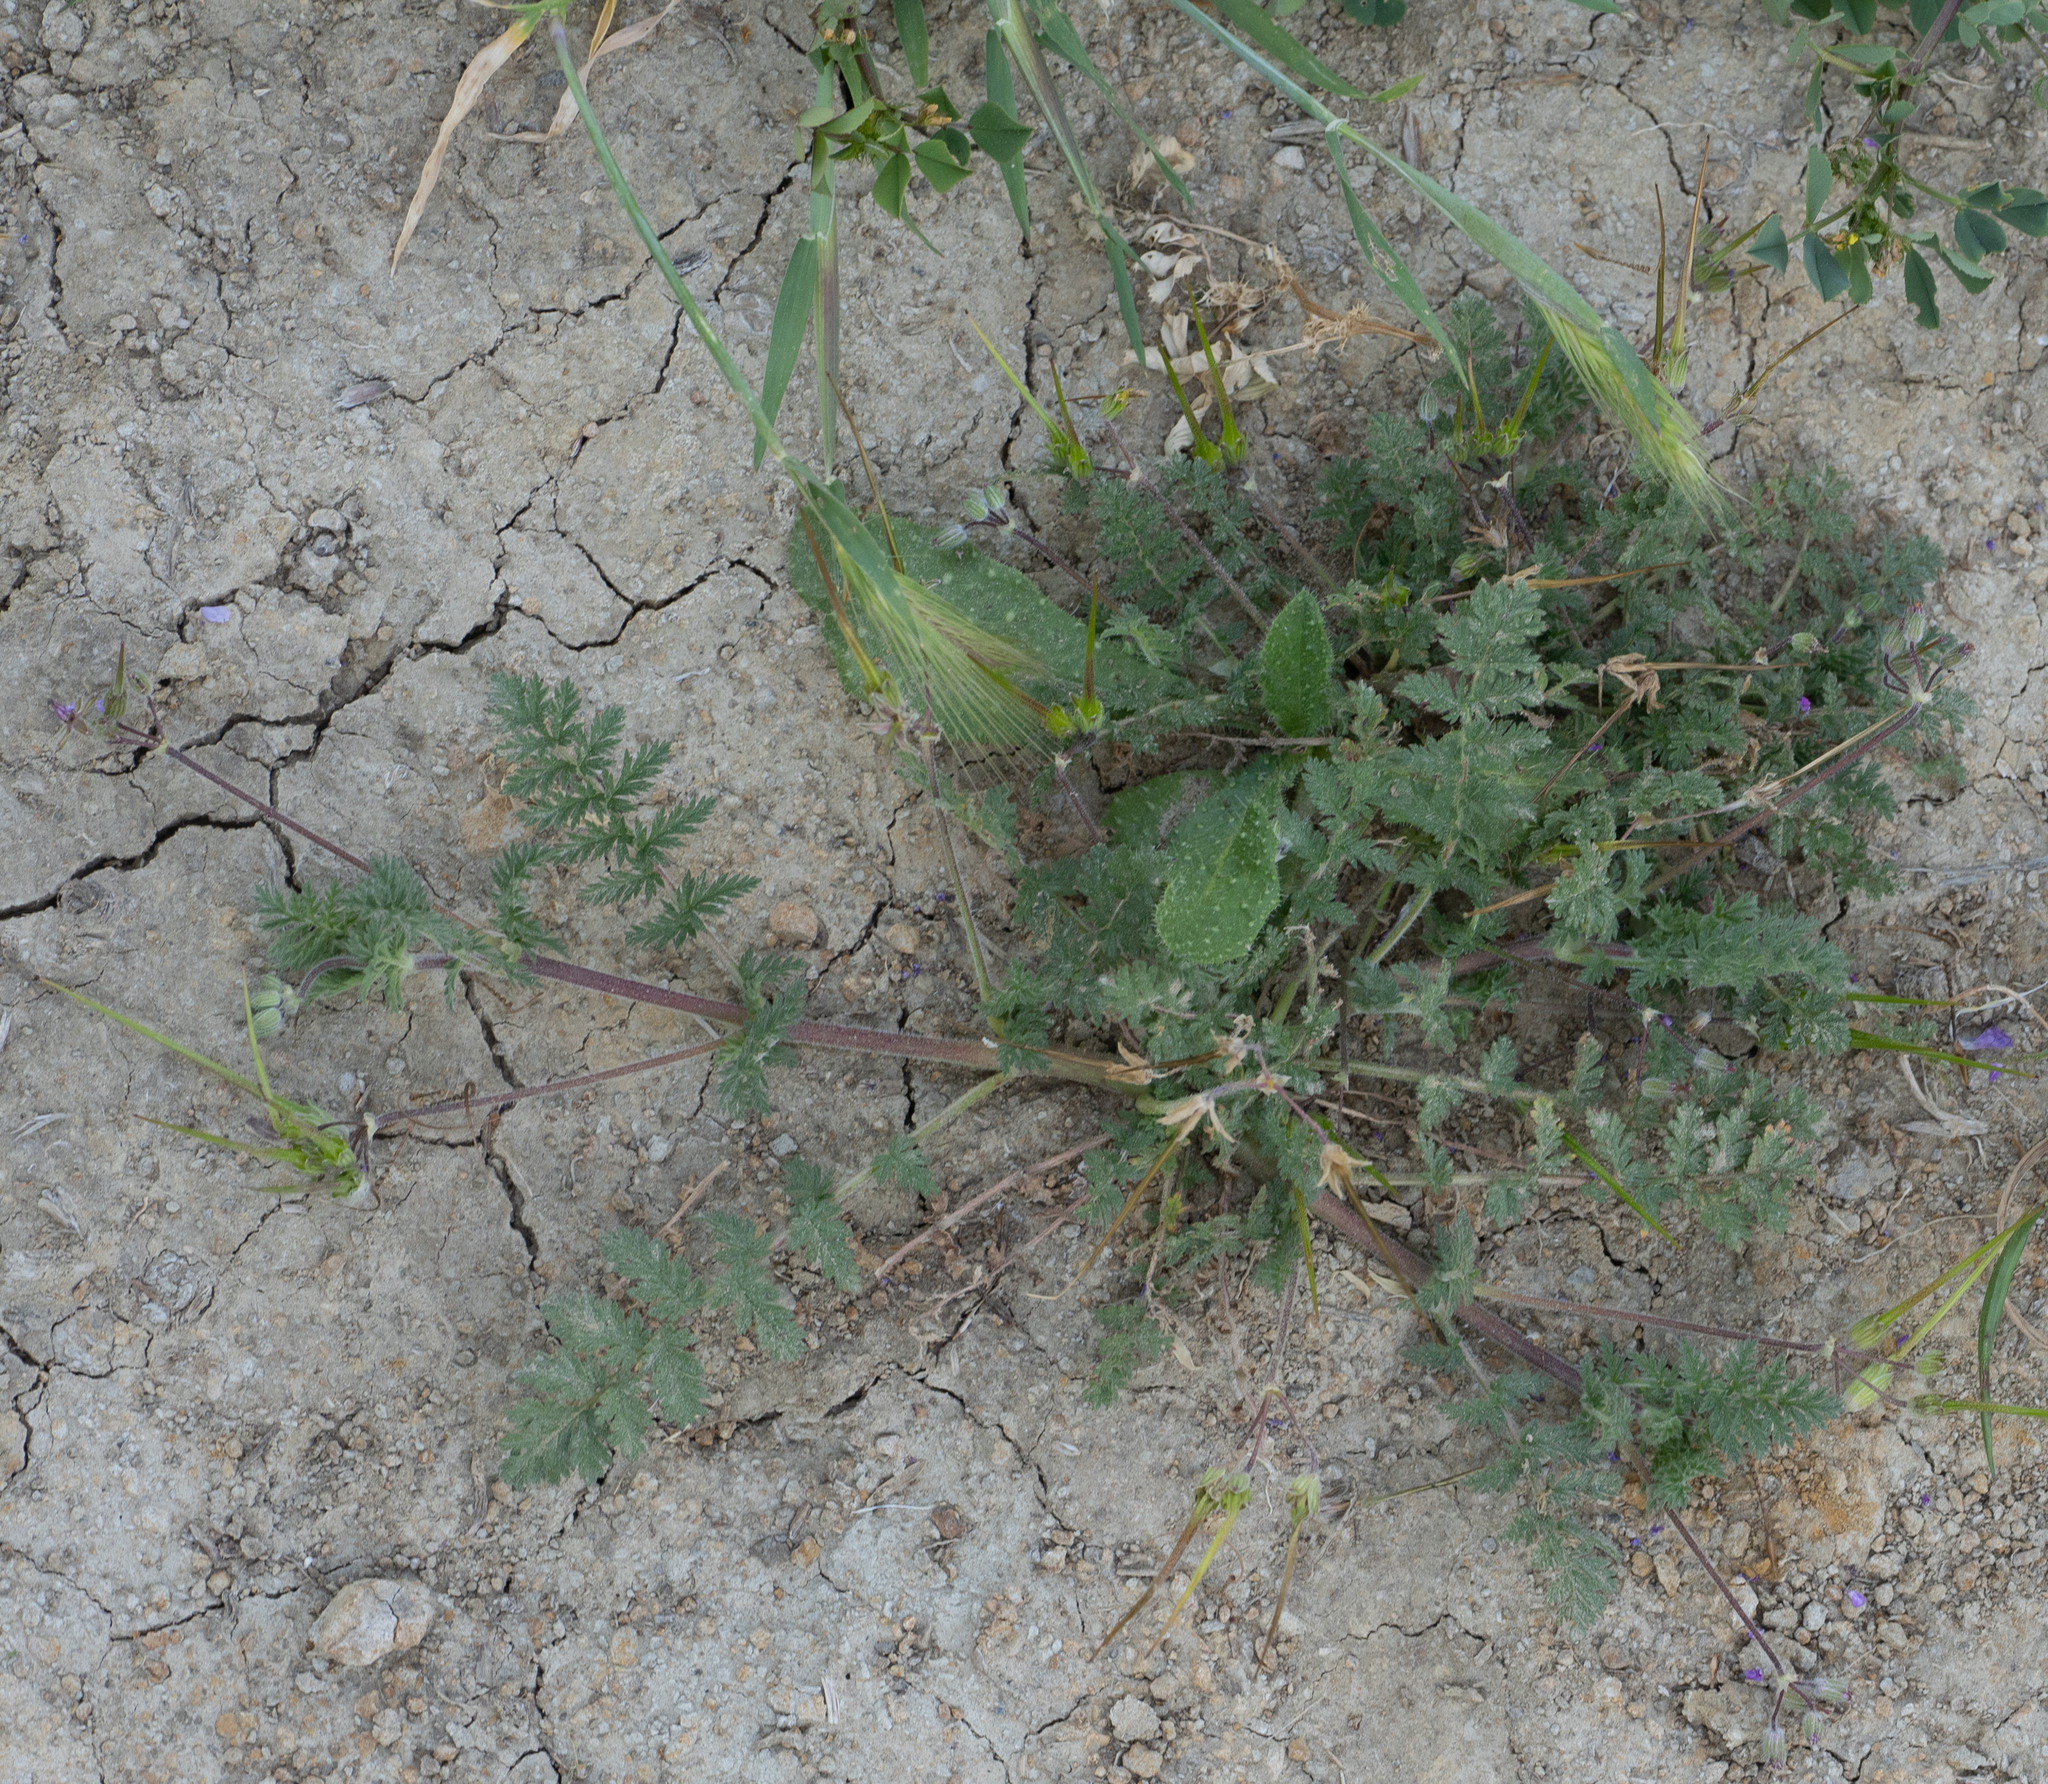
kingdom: Plantae
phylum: Tracheophyta
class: Magnoliopsida
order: Geraniales
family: Geraniaceae
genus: Erodium
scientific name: Erodium cicutarium
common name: Common stork's-bill
